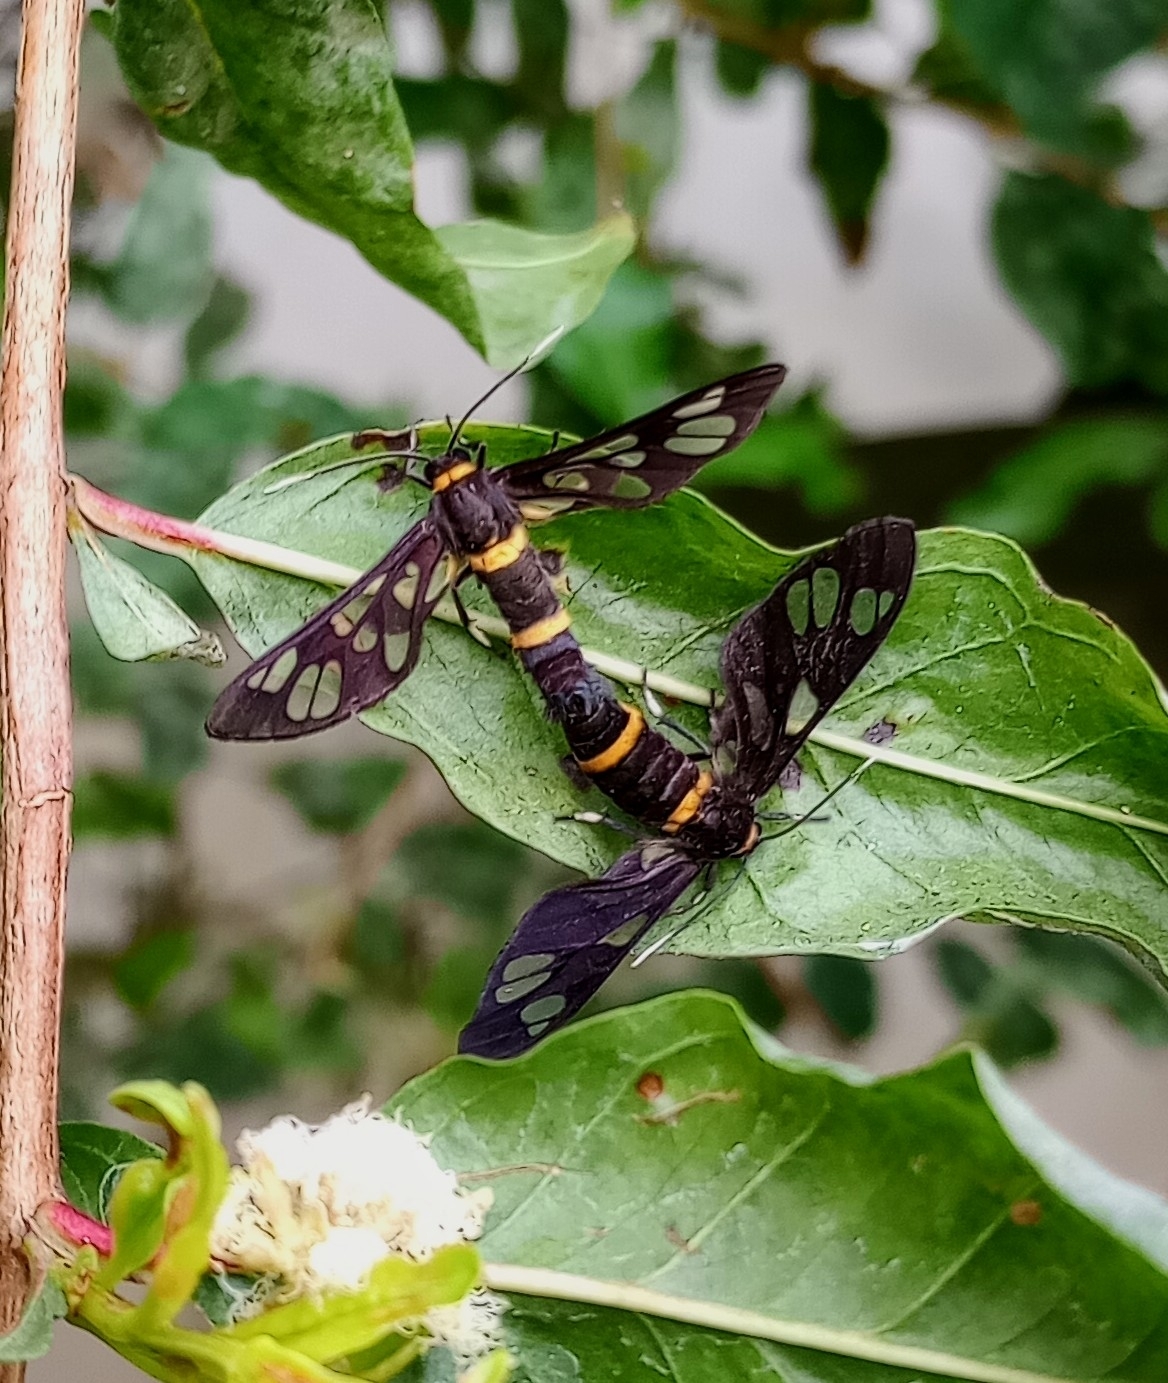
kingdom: Animalia
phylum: Arthropoda
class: Insecta
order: Lepidoptera
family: Erebidae
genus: Syntomoides
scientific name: Syntomoides imaon
